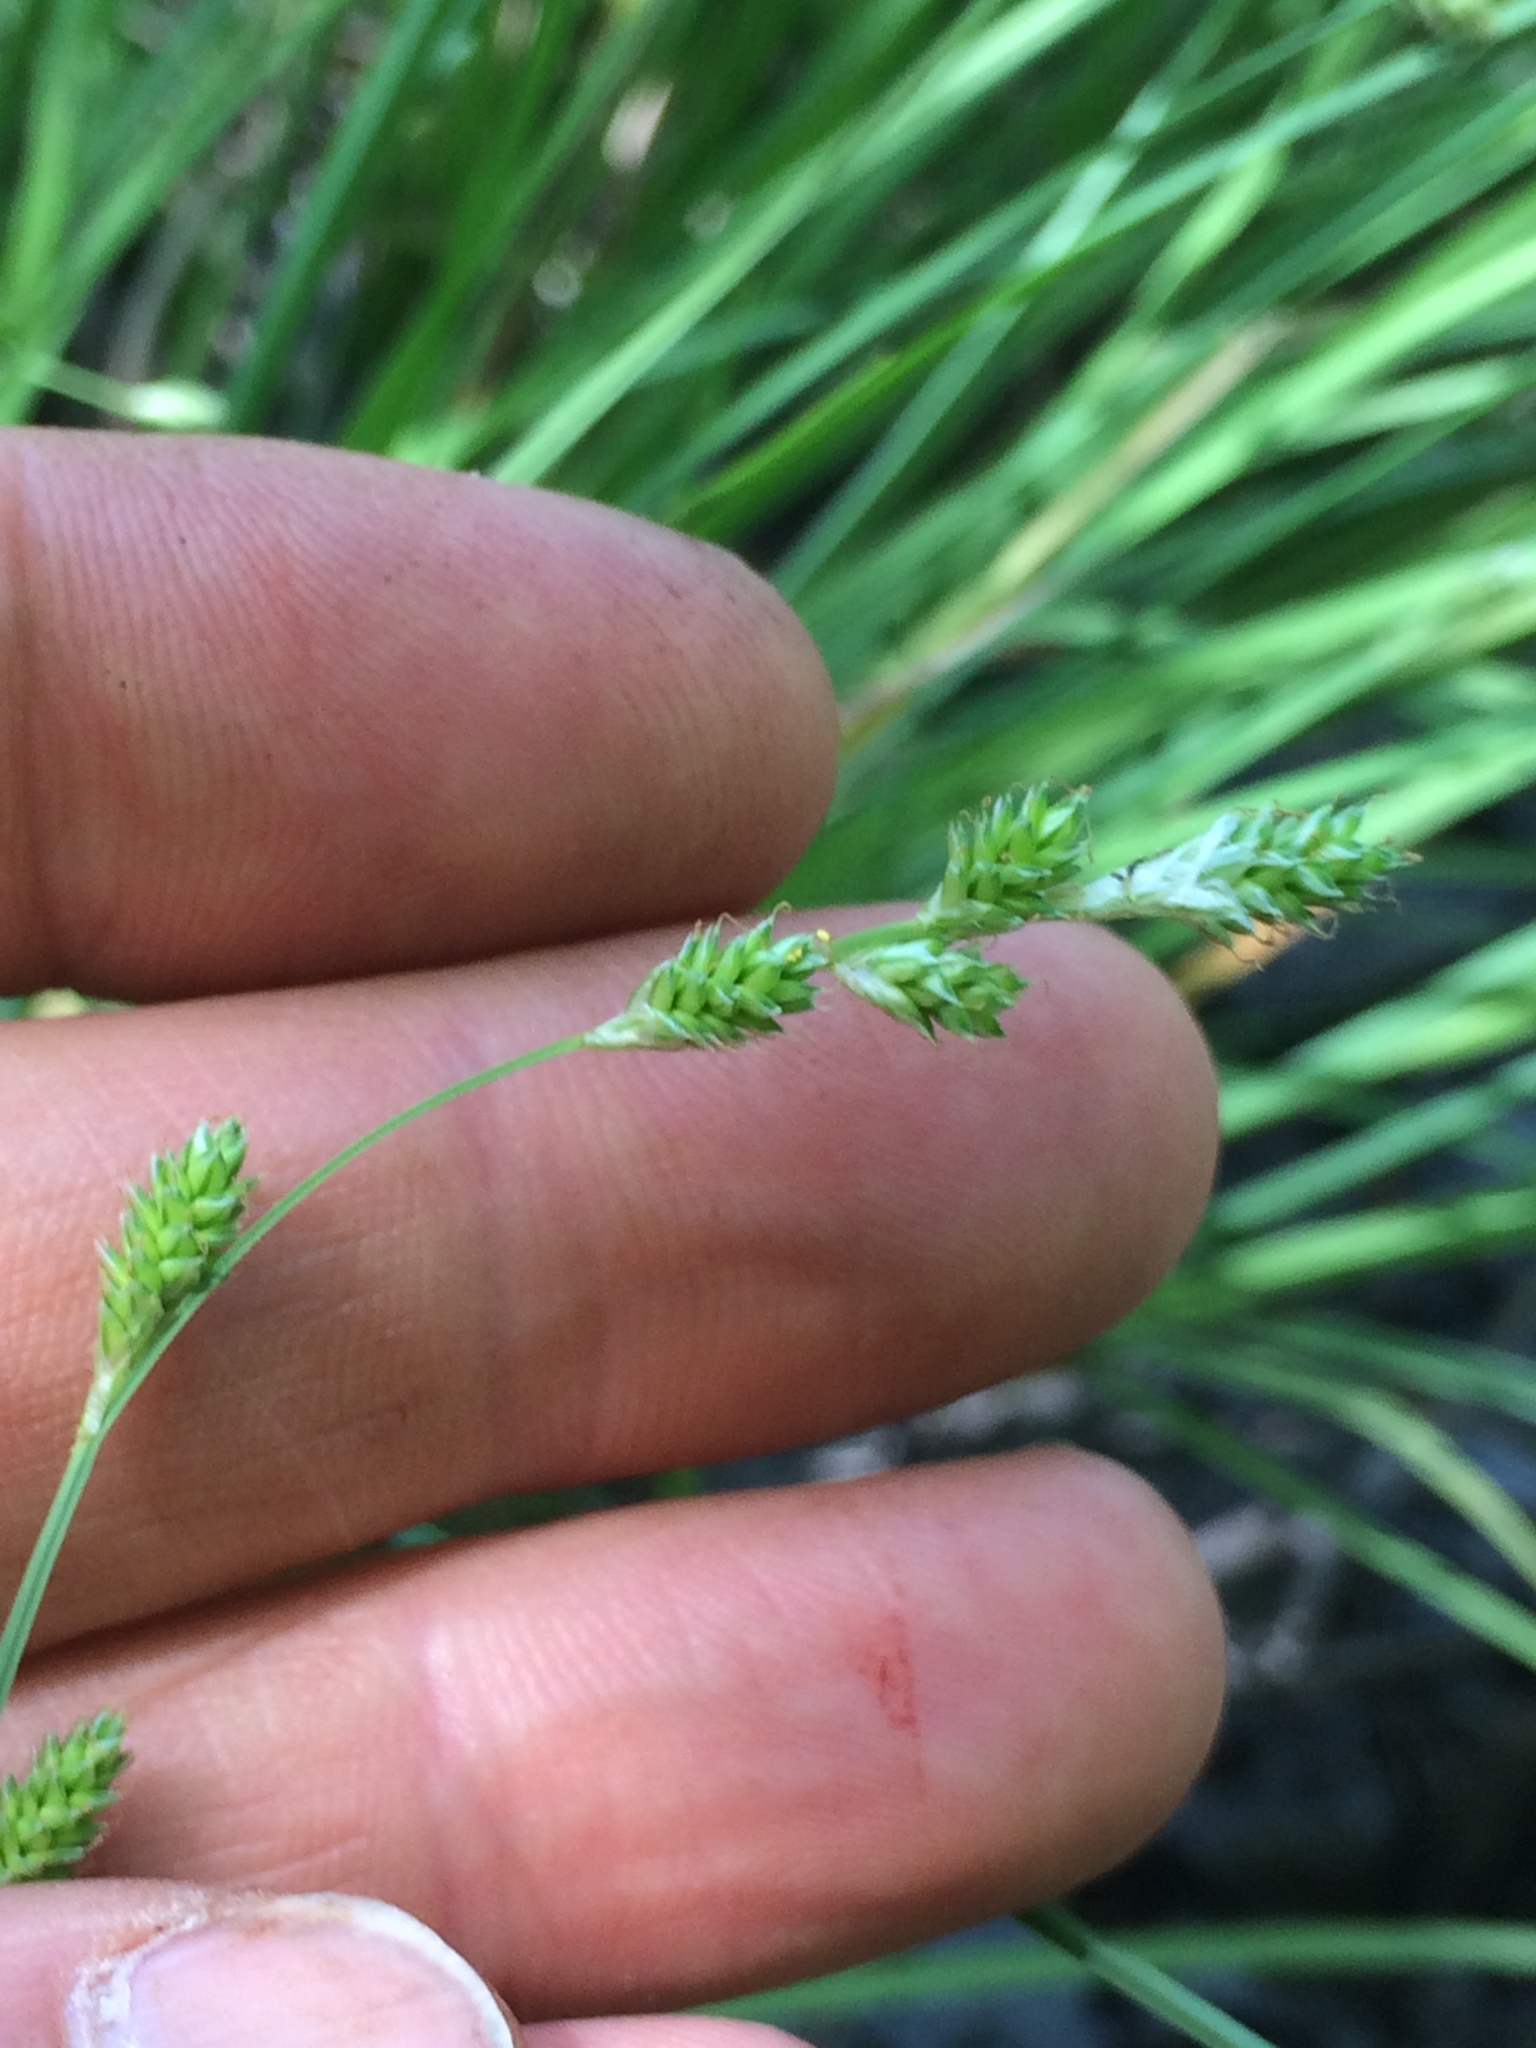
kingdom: Plantae
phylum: Tracheophyta
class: Liliopsida
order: Poales
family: Cyperaceae
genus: Carex
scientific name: Carex canescens
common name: White sedge
